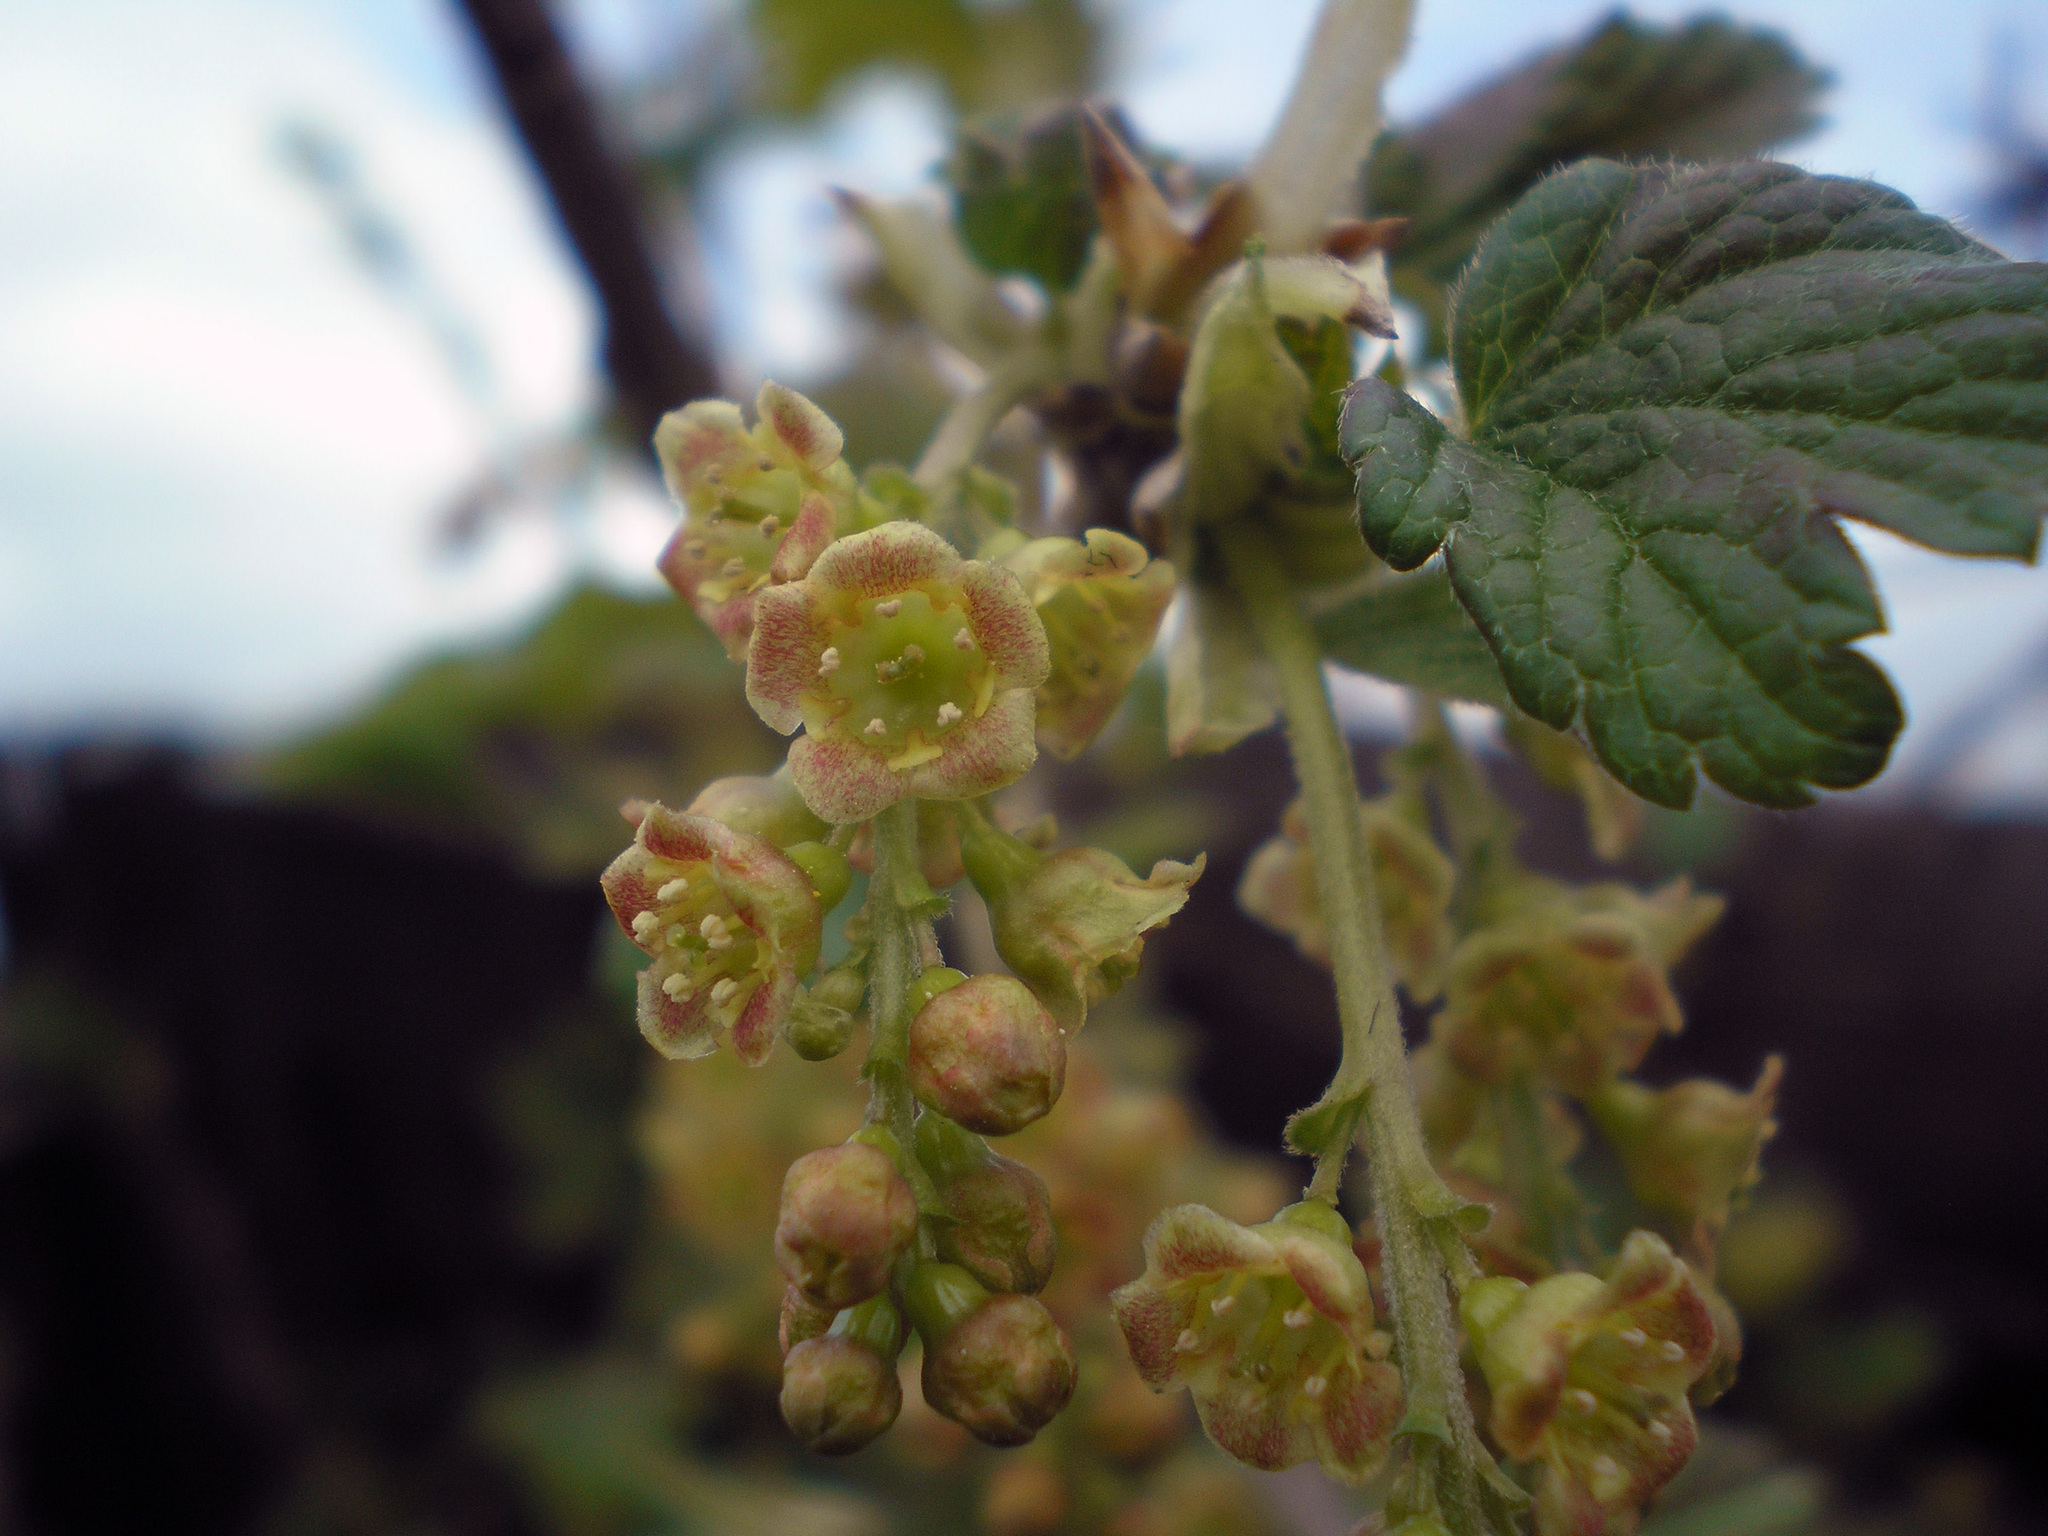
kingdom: Plantae
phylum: Tracheophyta
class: Magnoliopsida
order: Saxifragales
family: Grossulariaceae
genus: Ribes
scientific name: Ribes spicatum
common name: Downy currant
